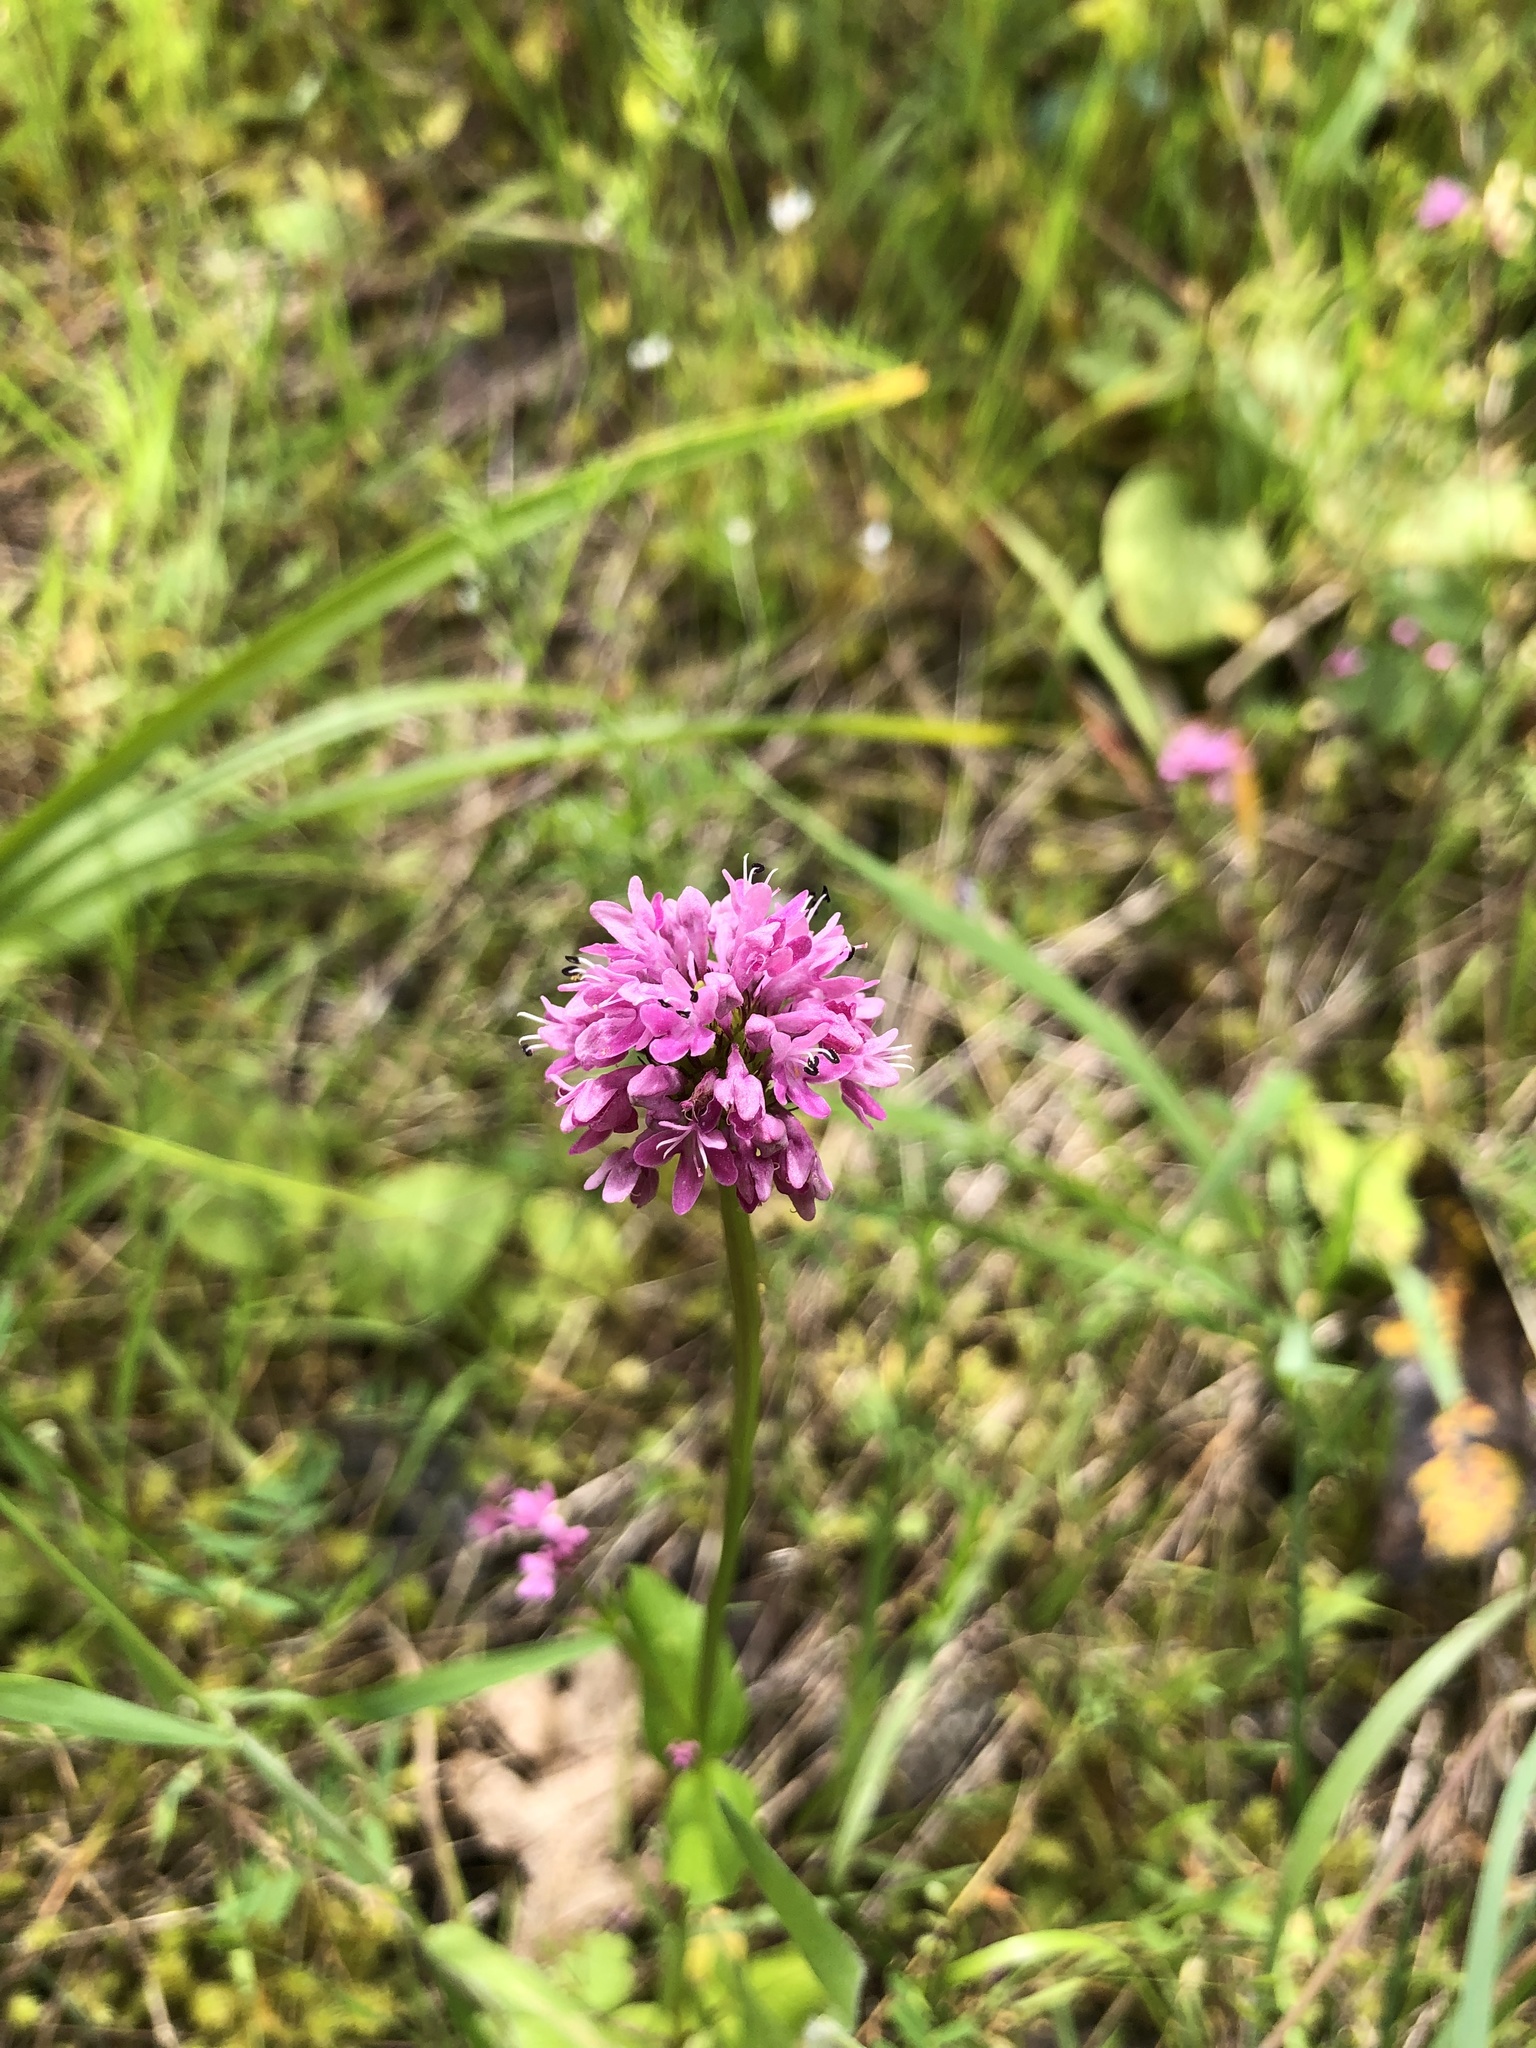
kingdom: Plantae
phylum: Tracheophyta
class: Magnoliopsida
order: Dipsacales
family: Caprifoliaceae
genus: Plectritis
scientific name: Plectritis congesta
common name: Pink plectritis
